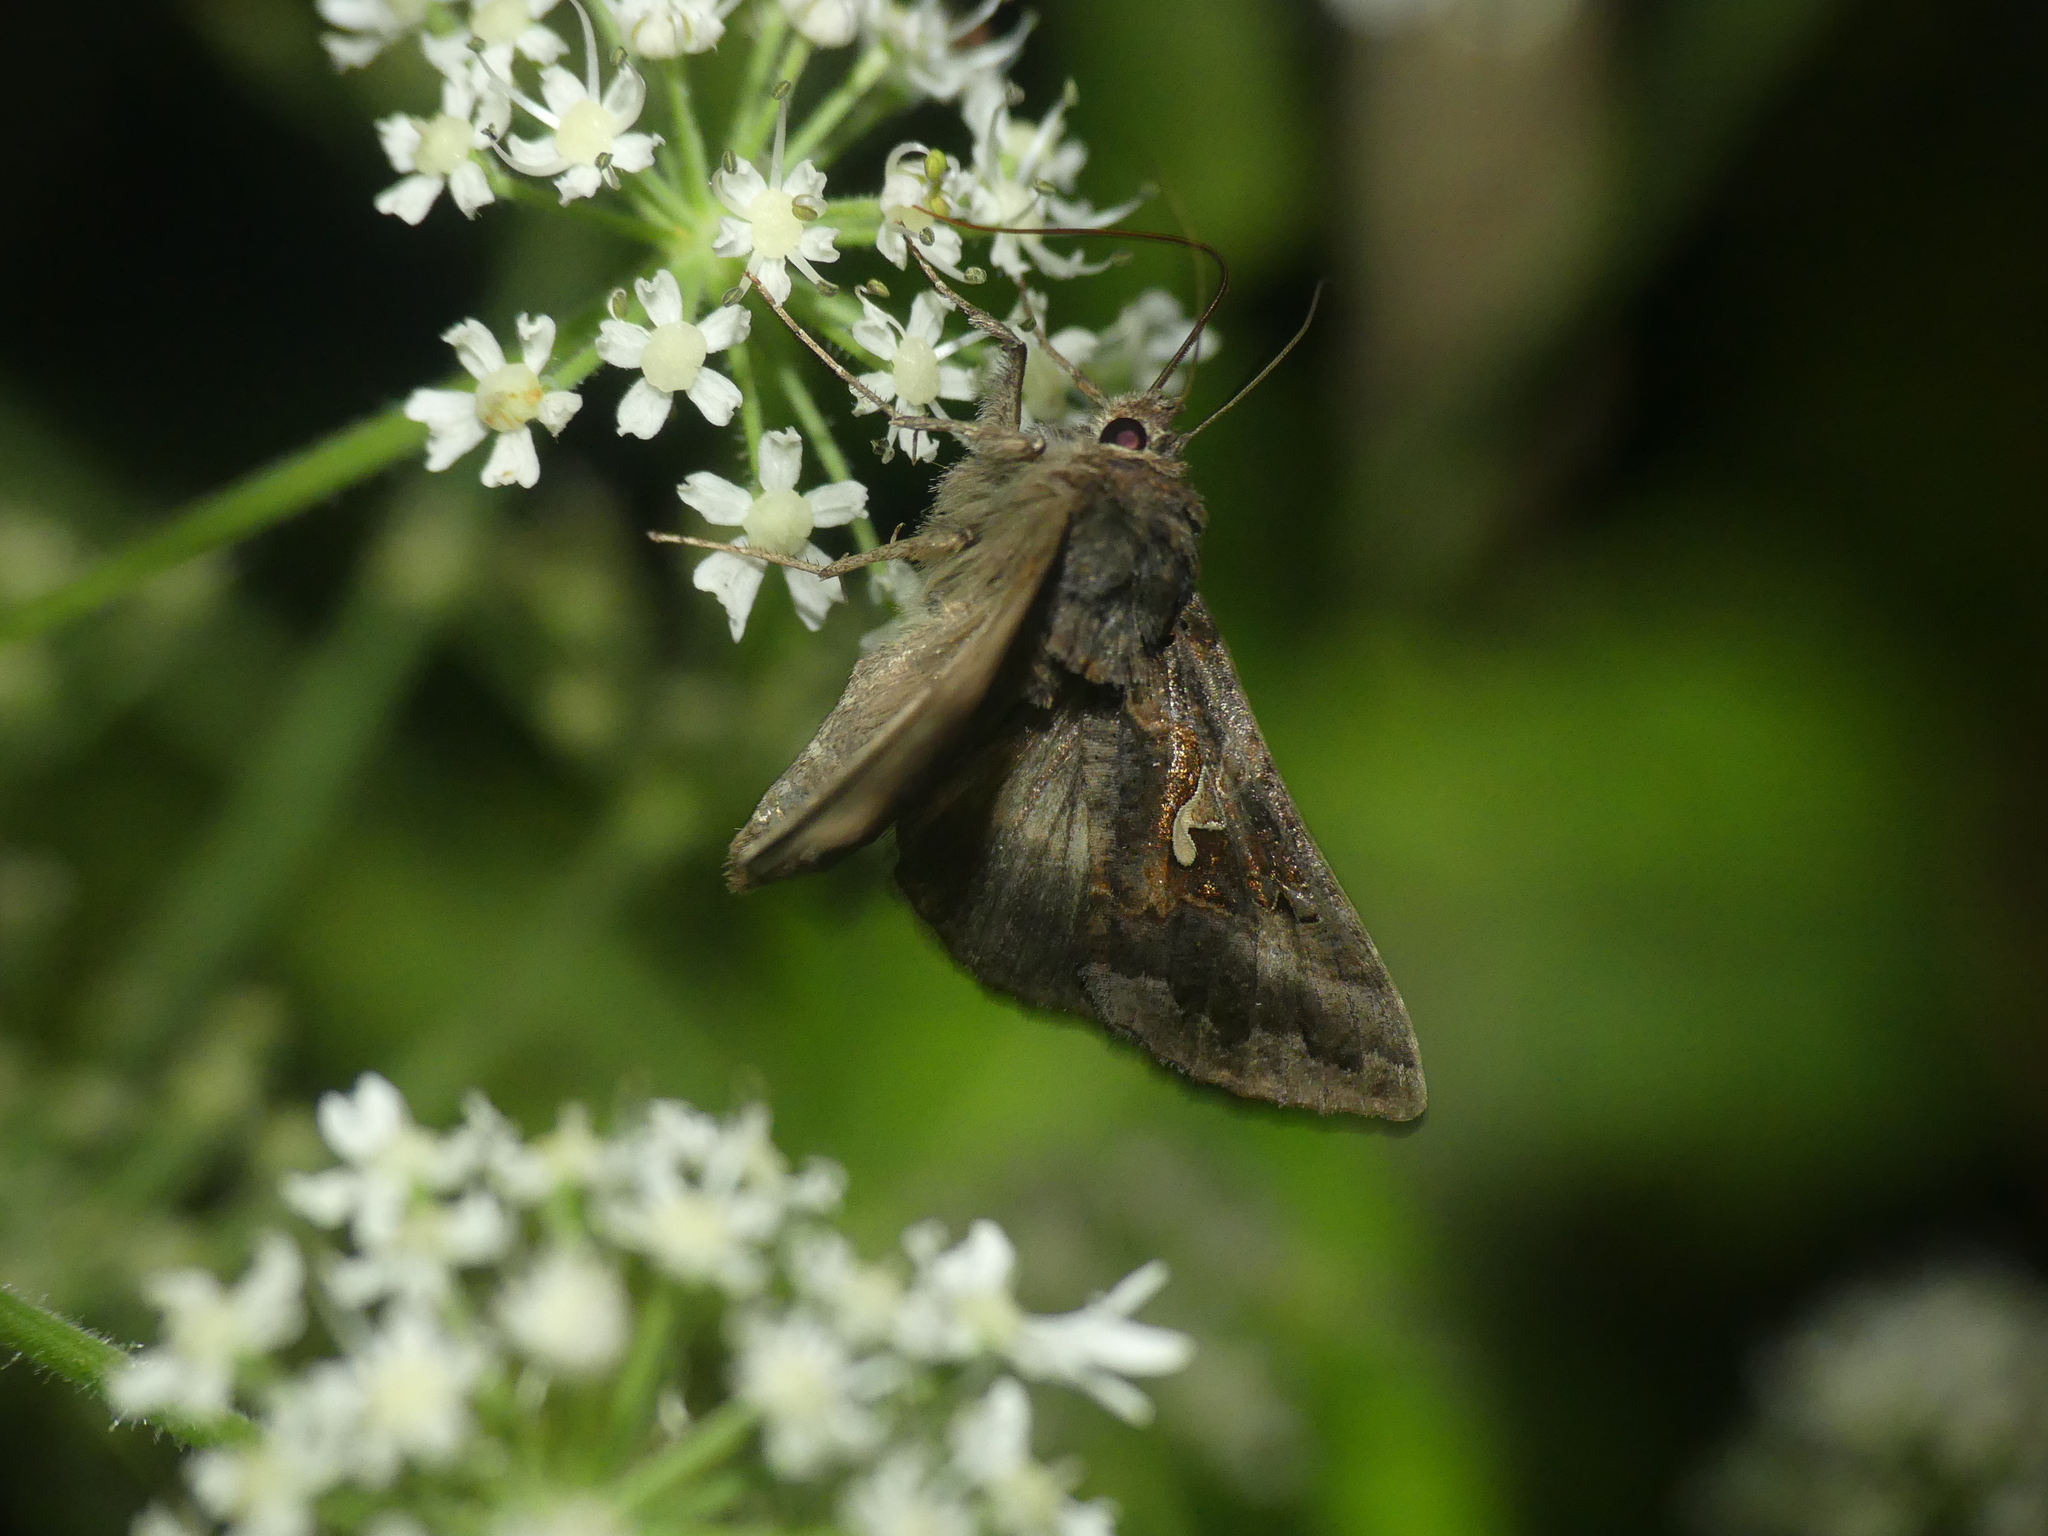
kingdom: Animalia
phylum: Arthropoda
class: Insecta
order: Lepidoptera
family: Noctuidae
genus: Autographa
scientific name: Autographa gamma
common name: Silver y
